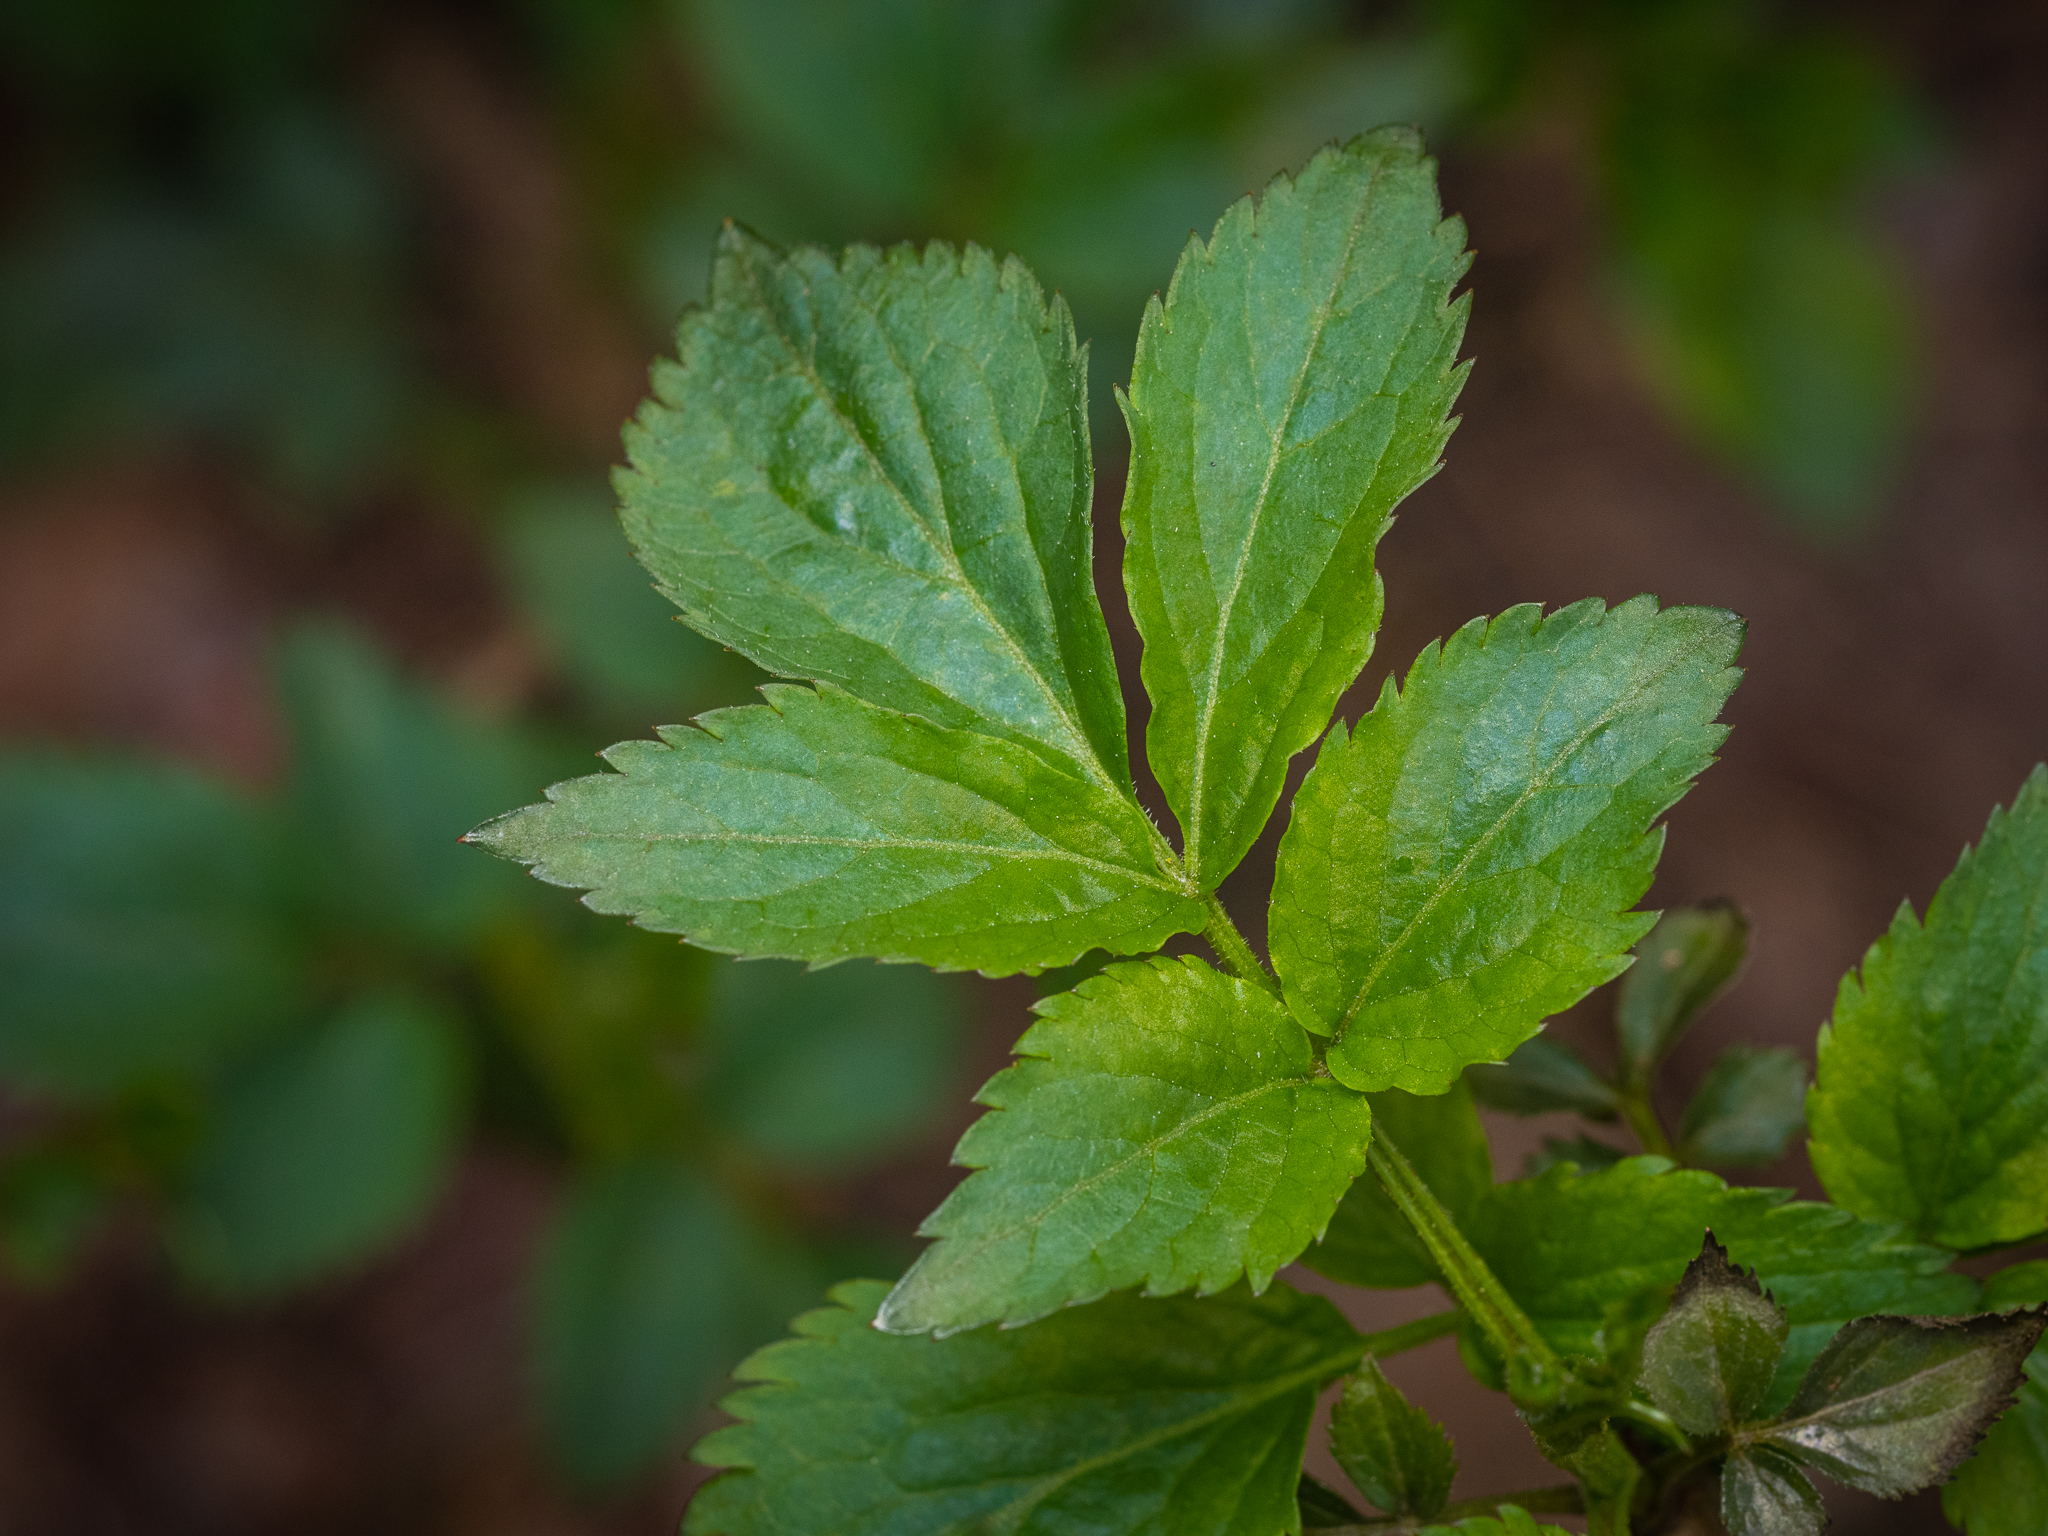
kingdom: Plantae
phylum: Tracheophyta
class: Magnoliopsida
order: Dipsacales
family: Viburnaceae
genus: Sambucus
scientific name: Sambucus nigra
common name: Elder
